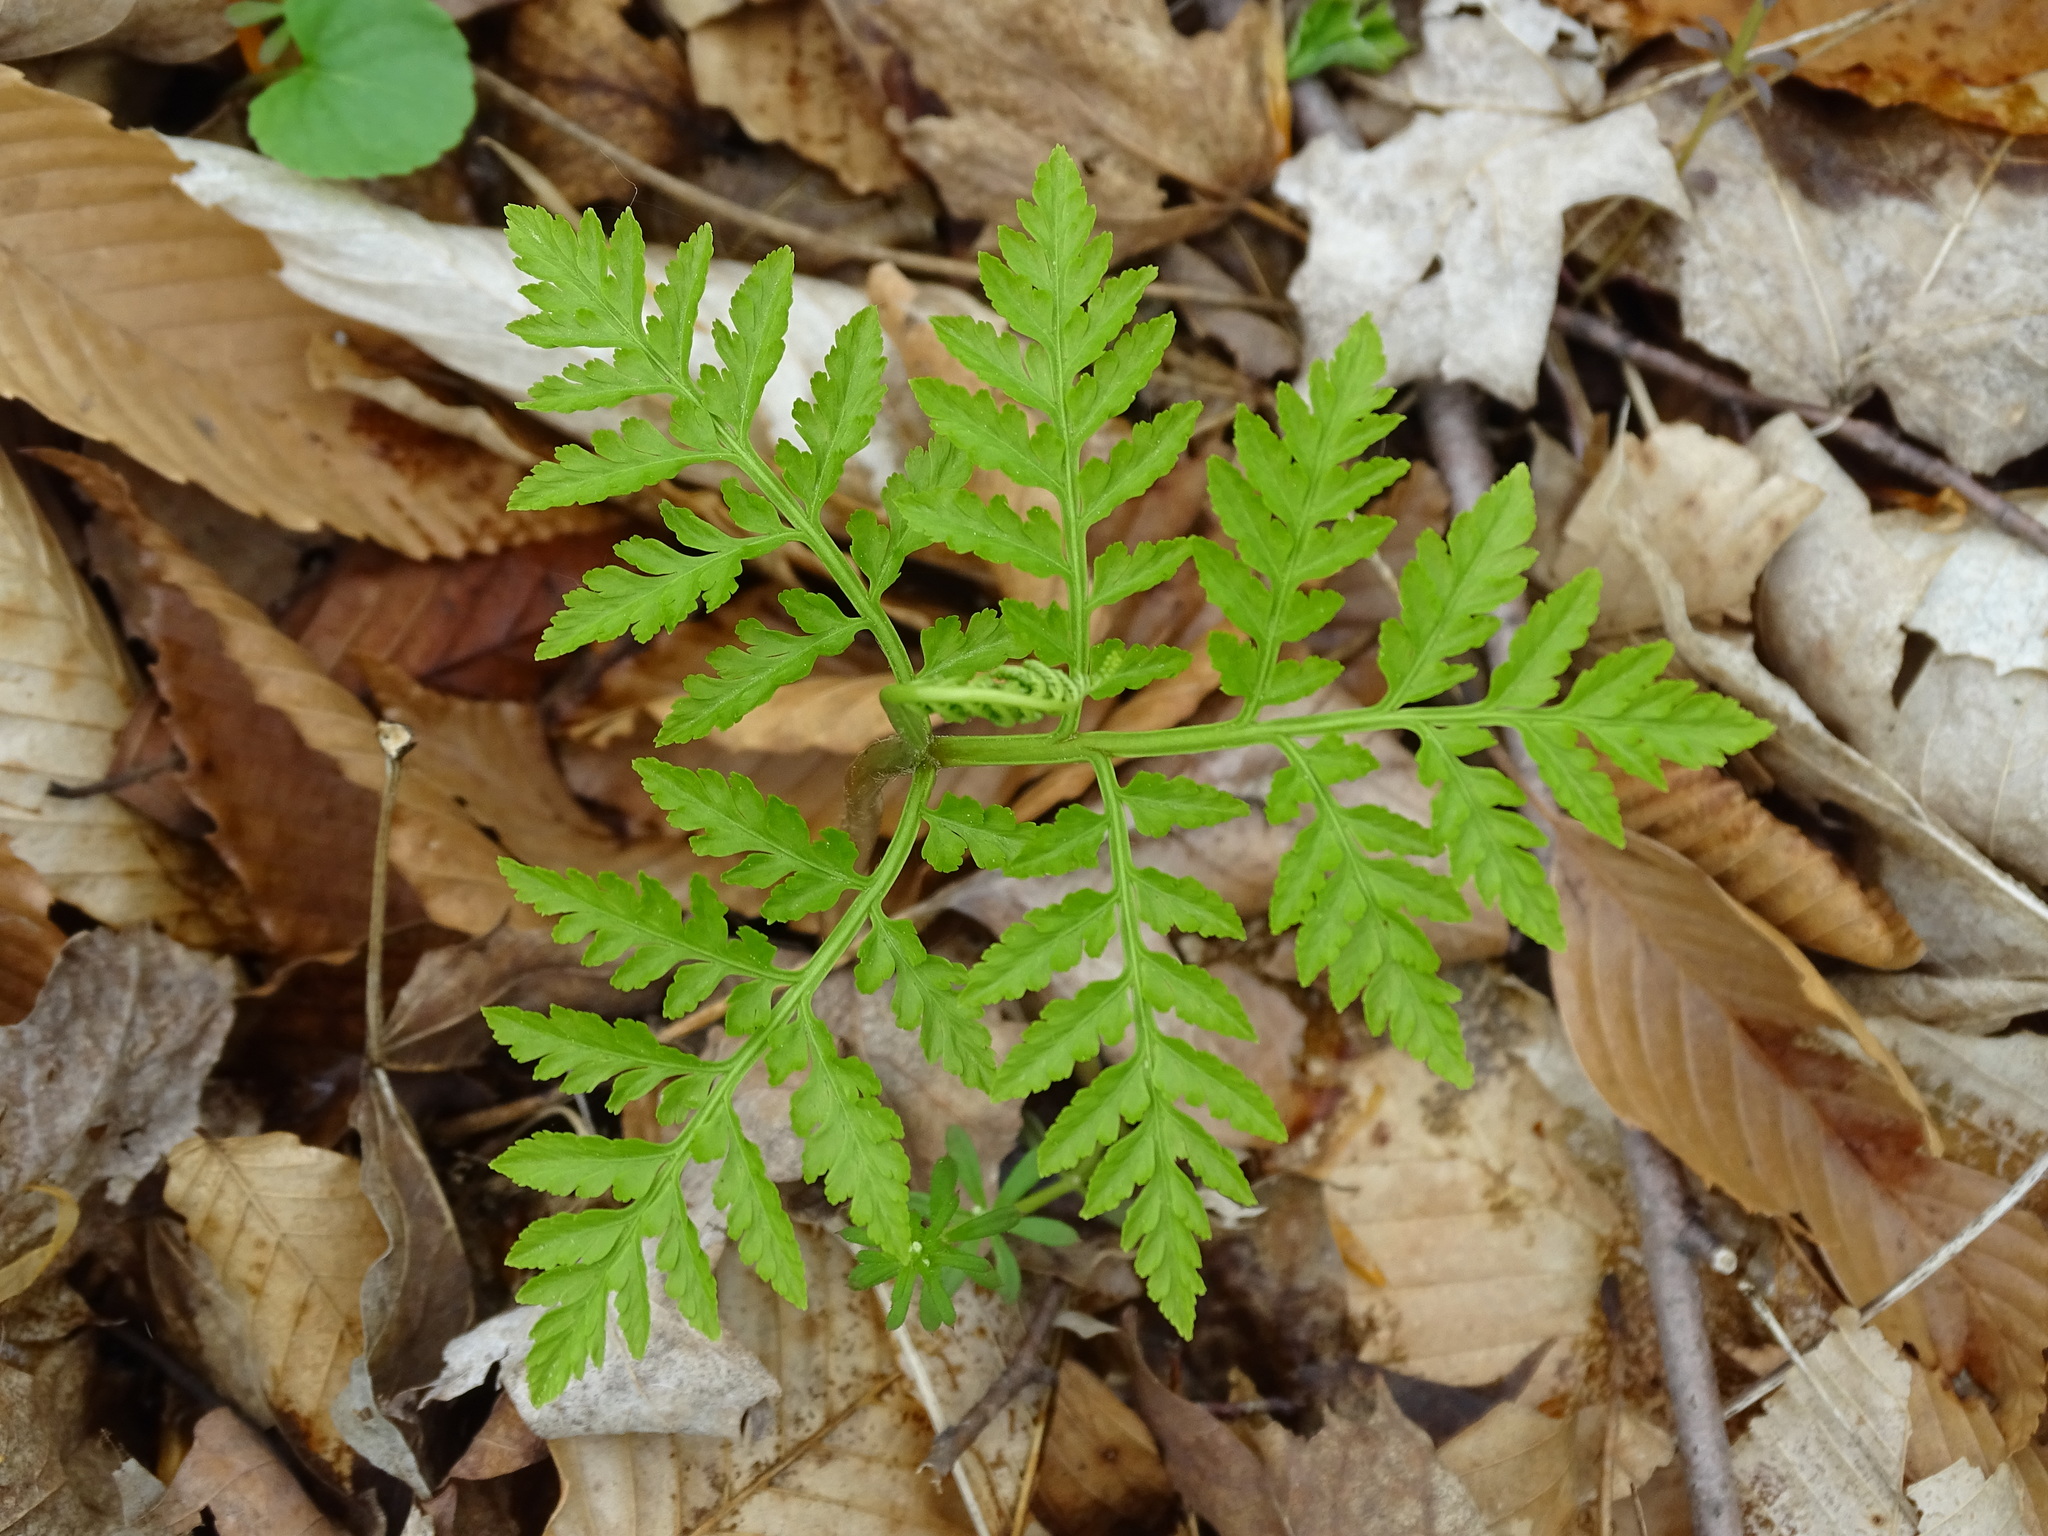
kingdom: Plantae
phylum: Tracheophyta
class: Polypodiopsida
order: Ophioglossales
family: Ophioglossaceae
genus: Botrypus
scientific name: Botrypus virginianus
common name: Common grapefern
